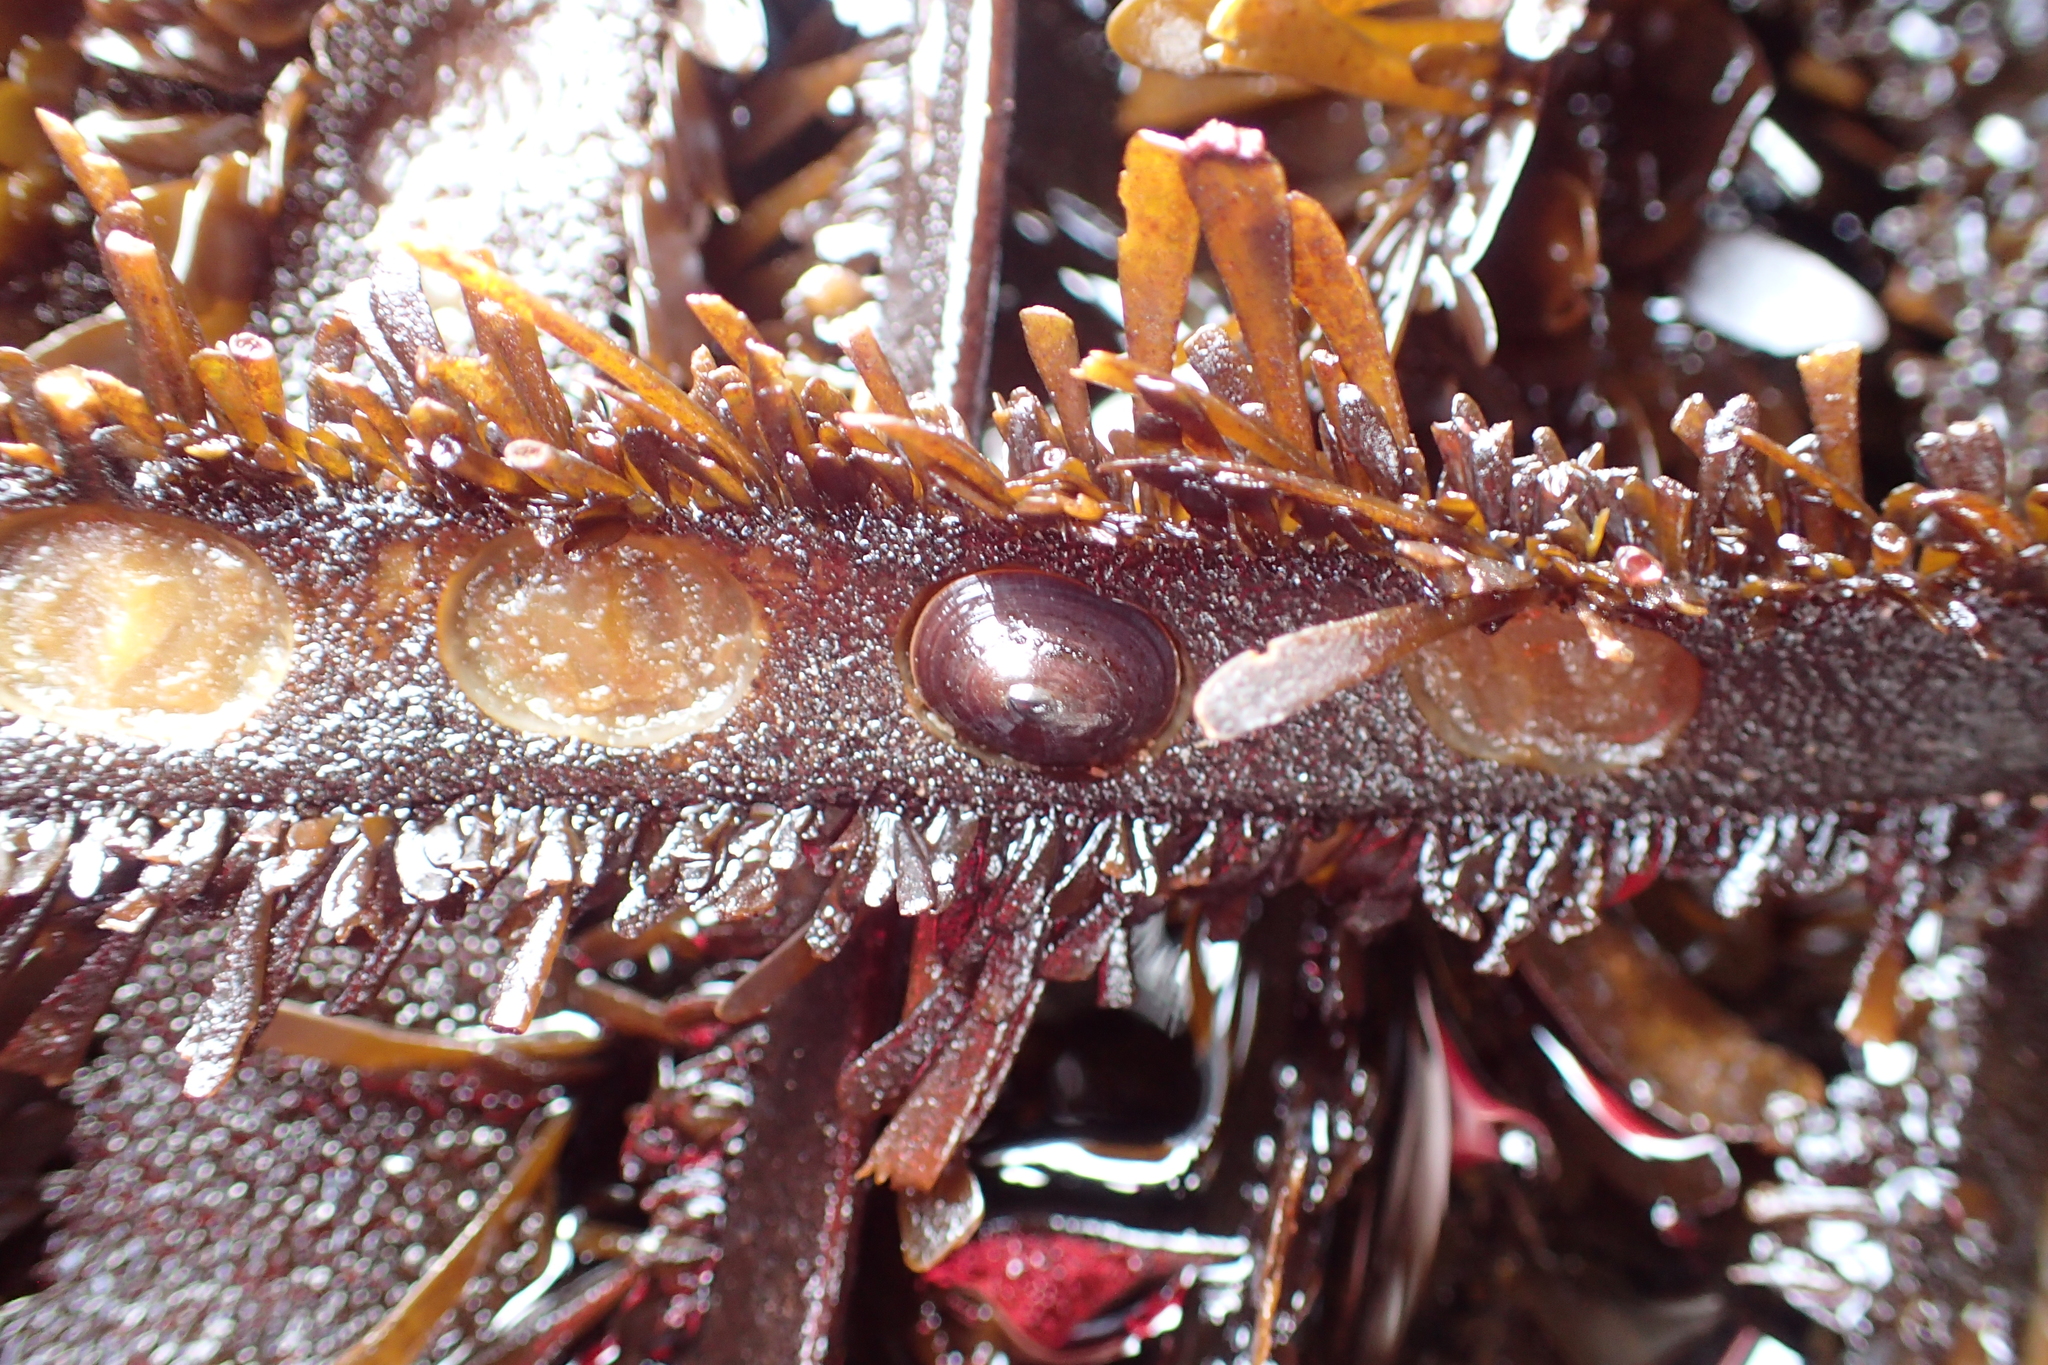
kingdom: Animalia
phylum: Mollusca
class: Gastropoda
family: Lottiidae
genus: Discurria
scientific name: Discurria insessa
